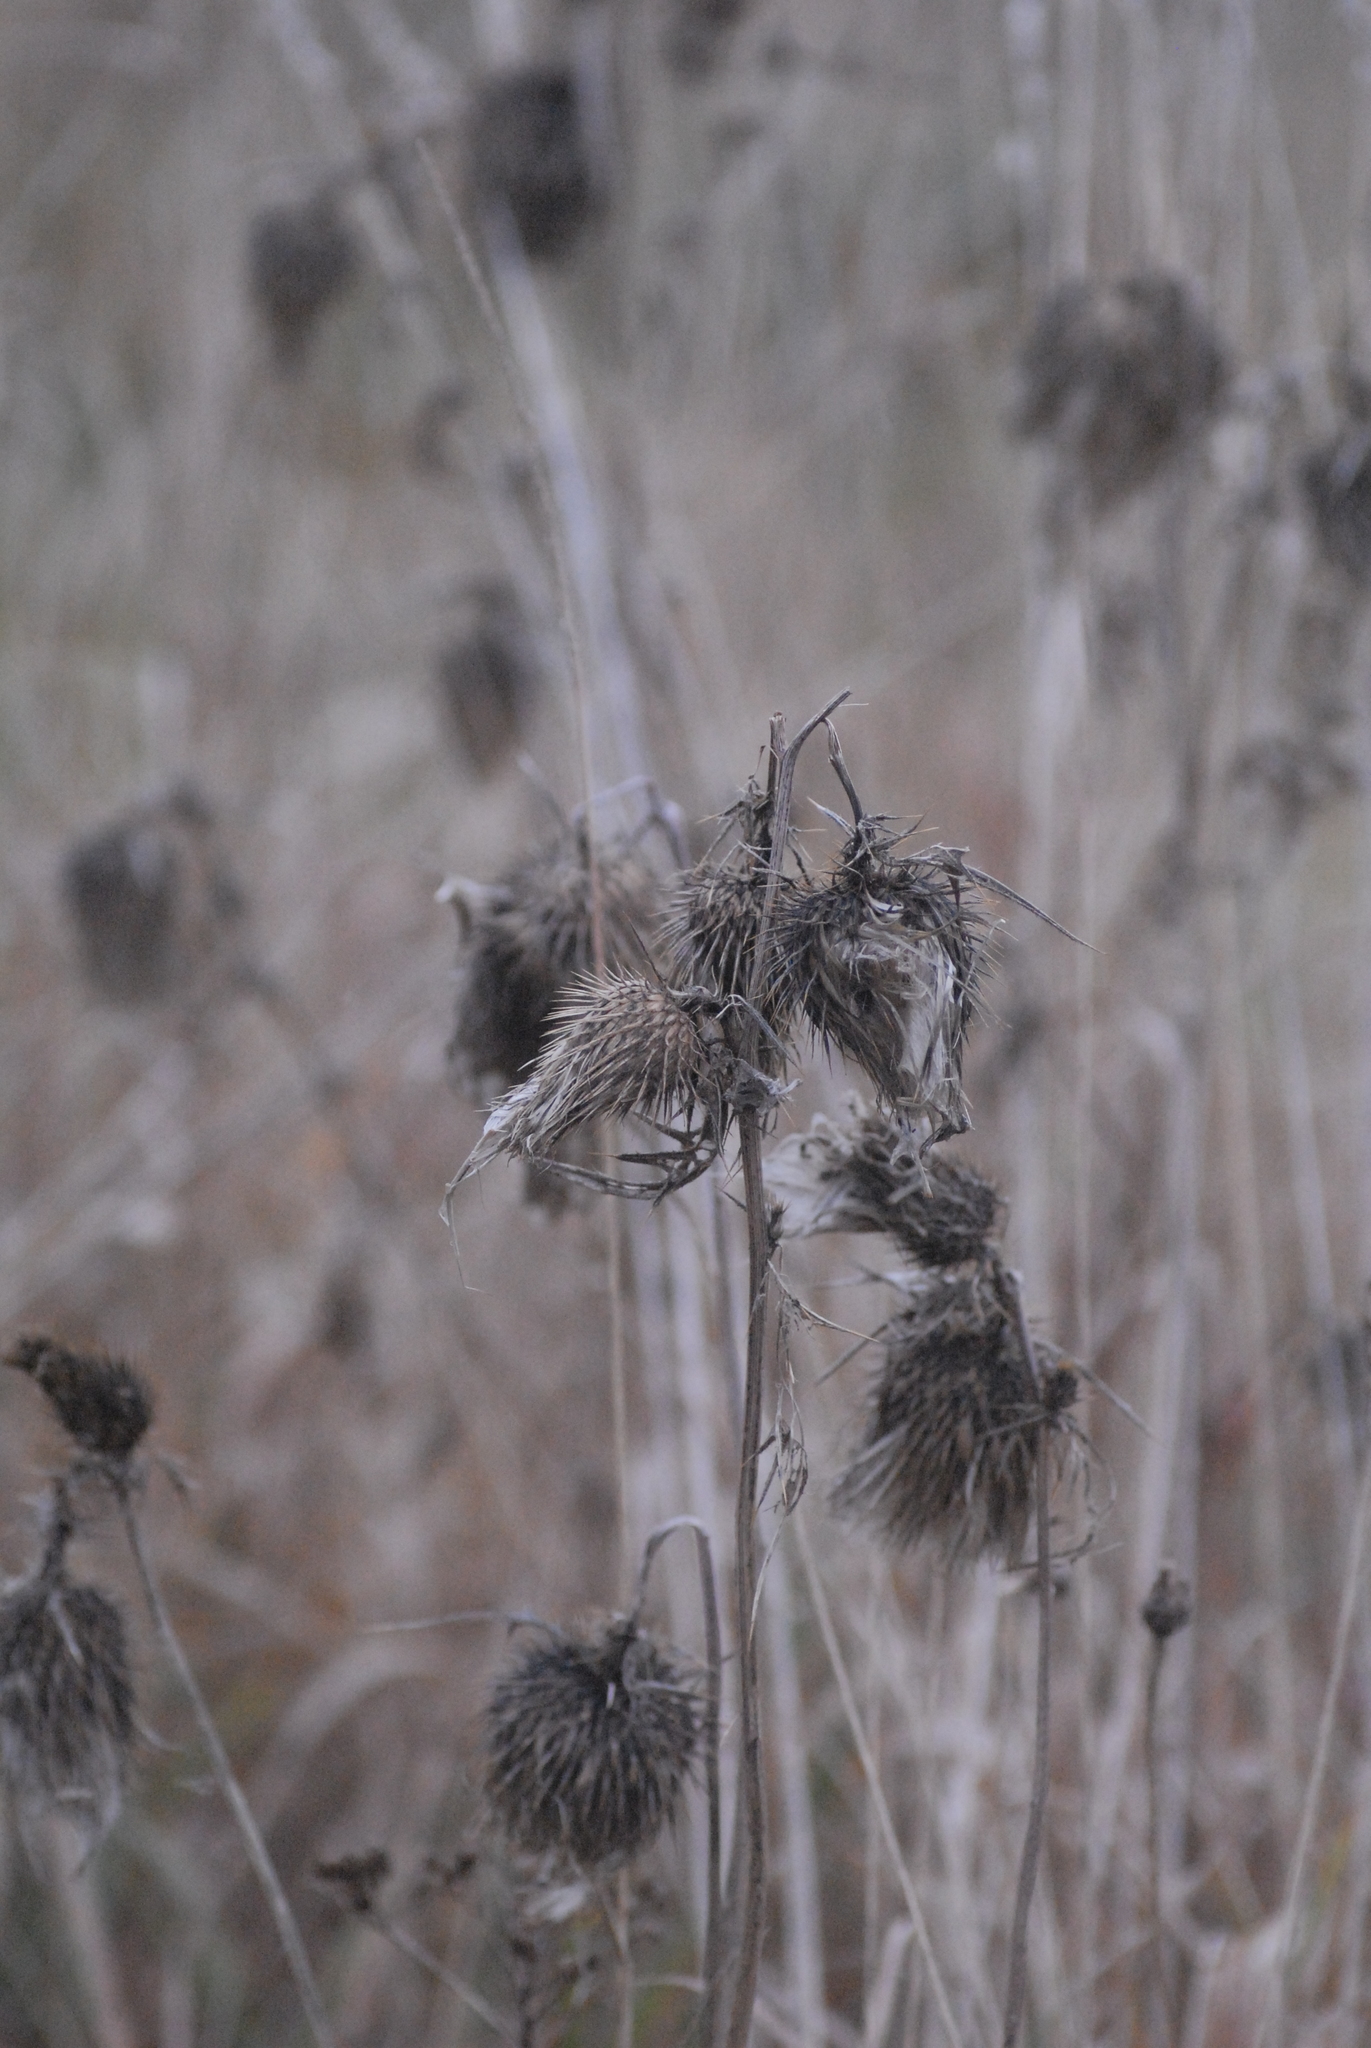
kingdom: Plantae
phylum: Tracheophyta
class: Magnoliopsida
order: Asterales
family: Asteraceae
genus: Cirsium
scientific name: Cirsium vulgare
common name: Bull thistle
